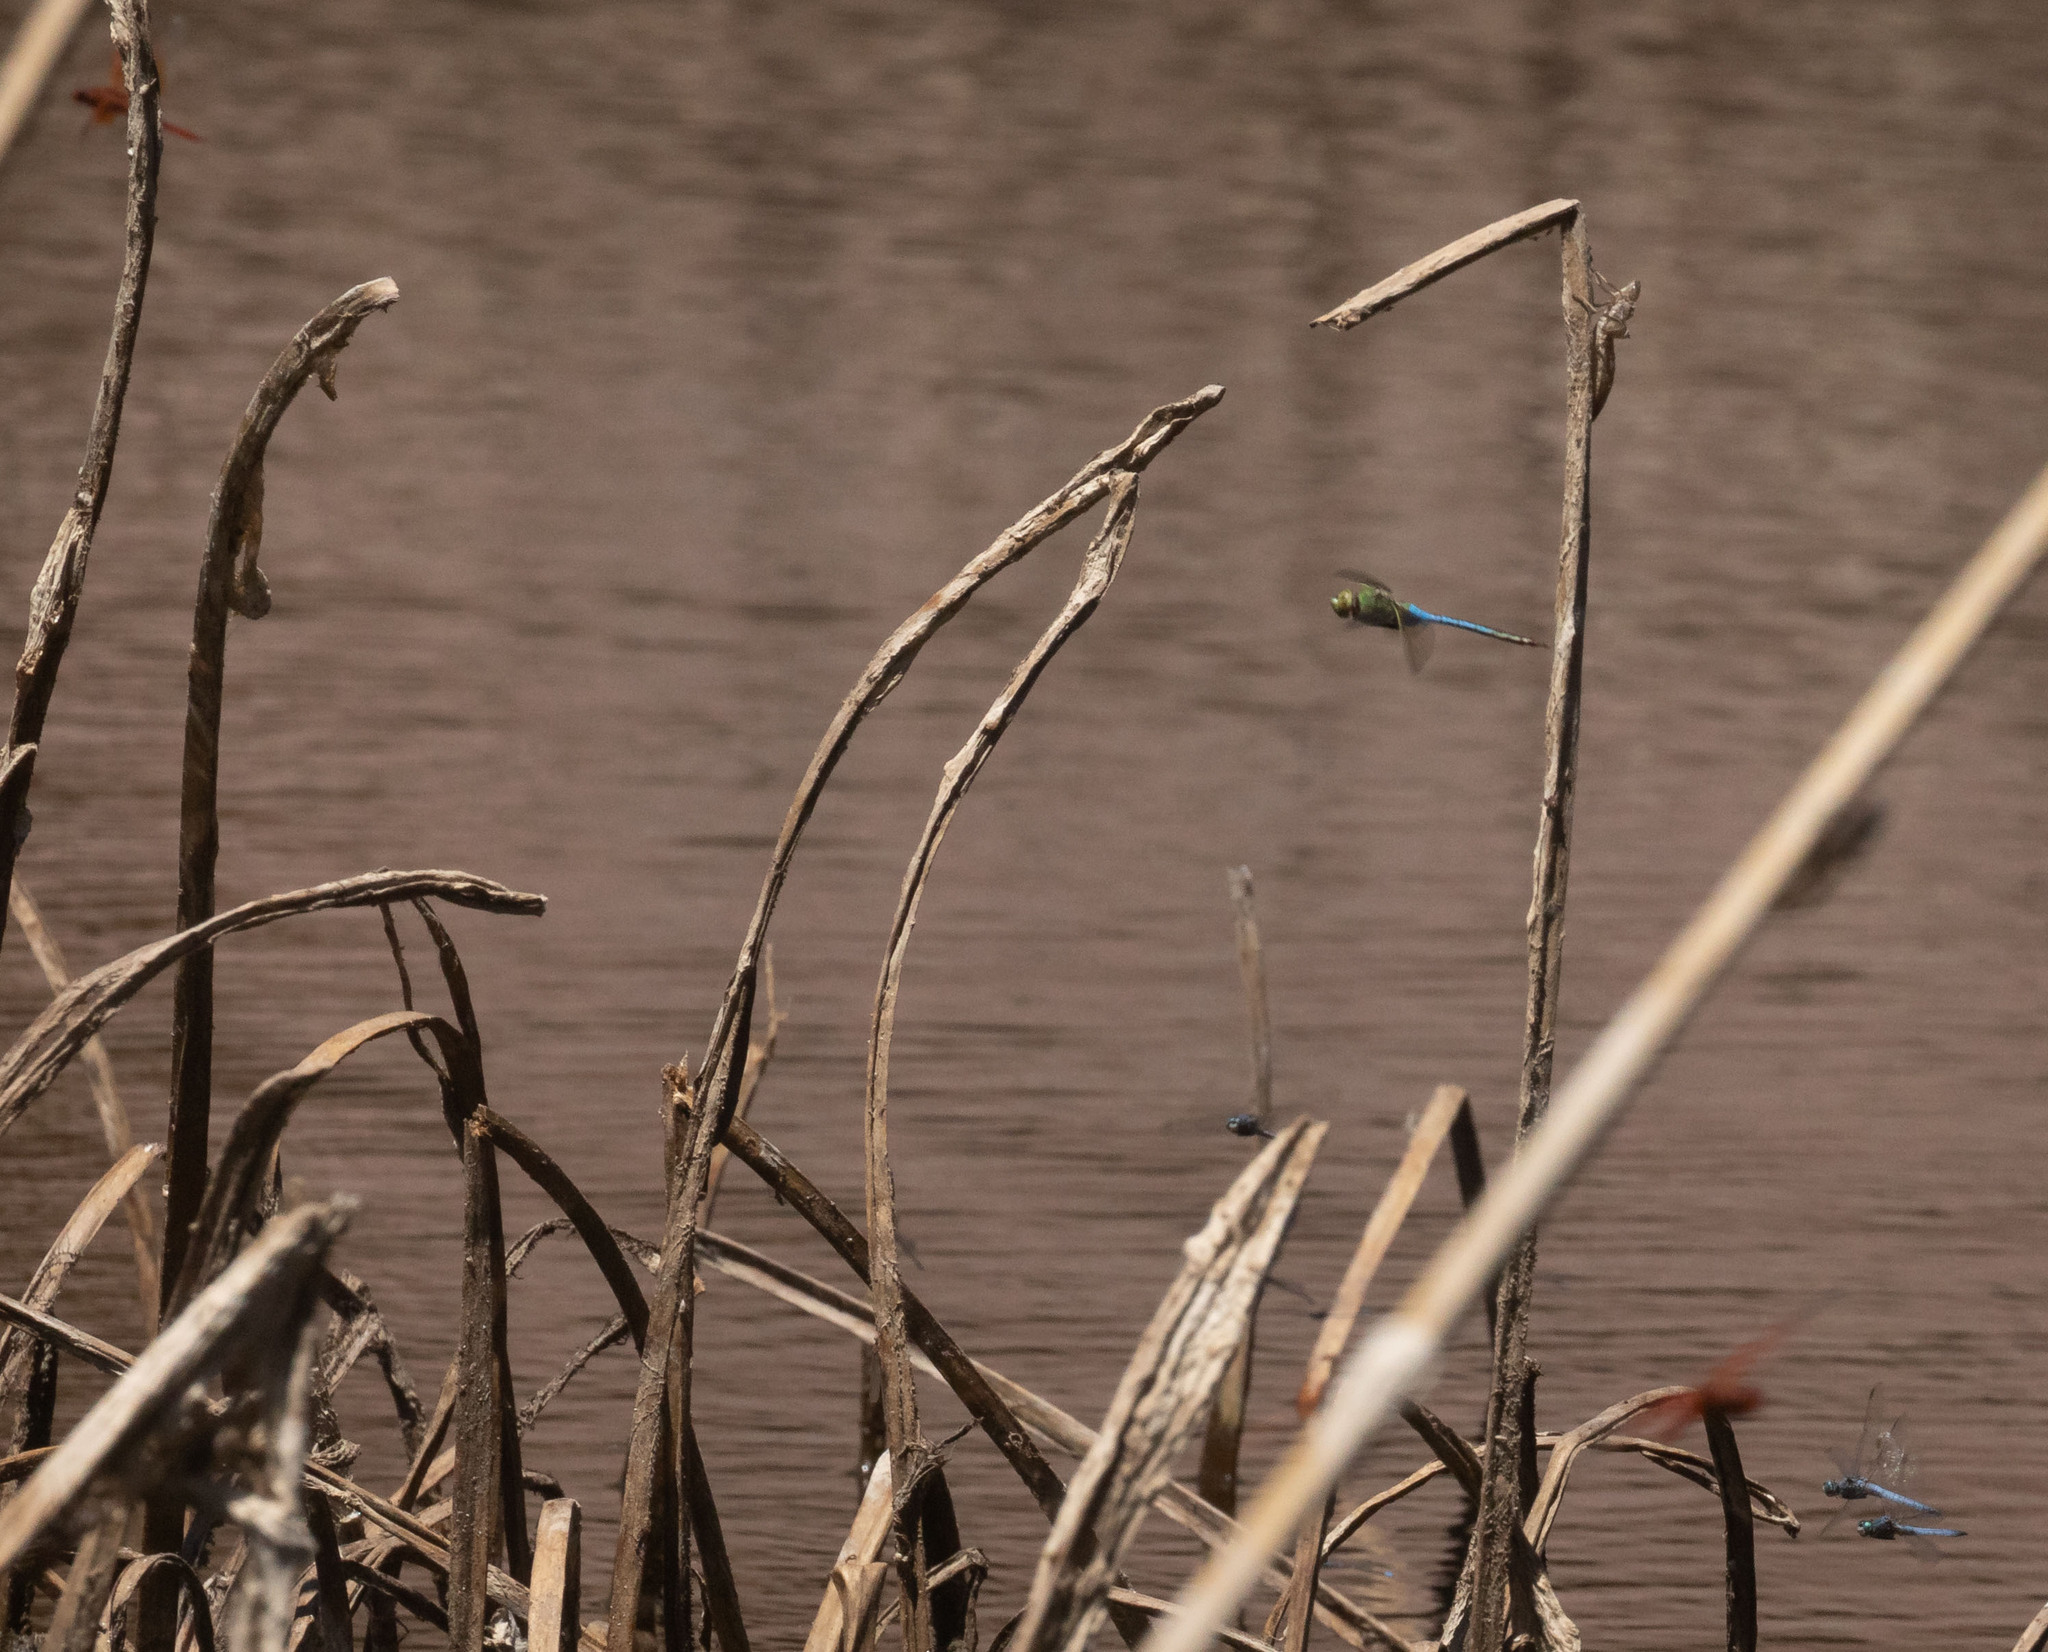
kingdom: Animalia
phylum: Arthropoda
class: Insecta
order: Odonata
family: Libellulidae
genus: Pachydiplax
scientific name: Pachydiplax longipennis
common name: Blue dasher
